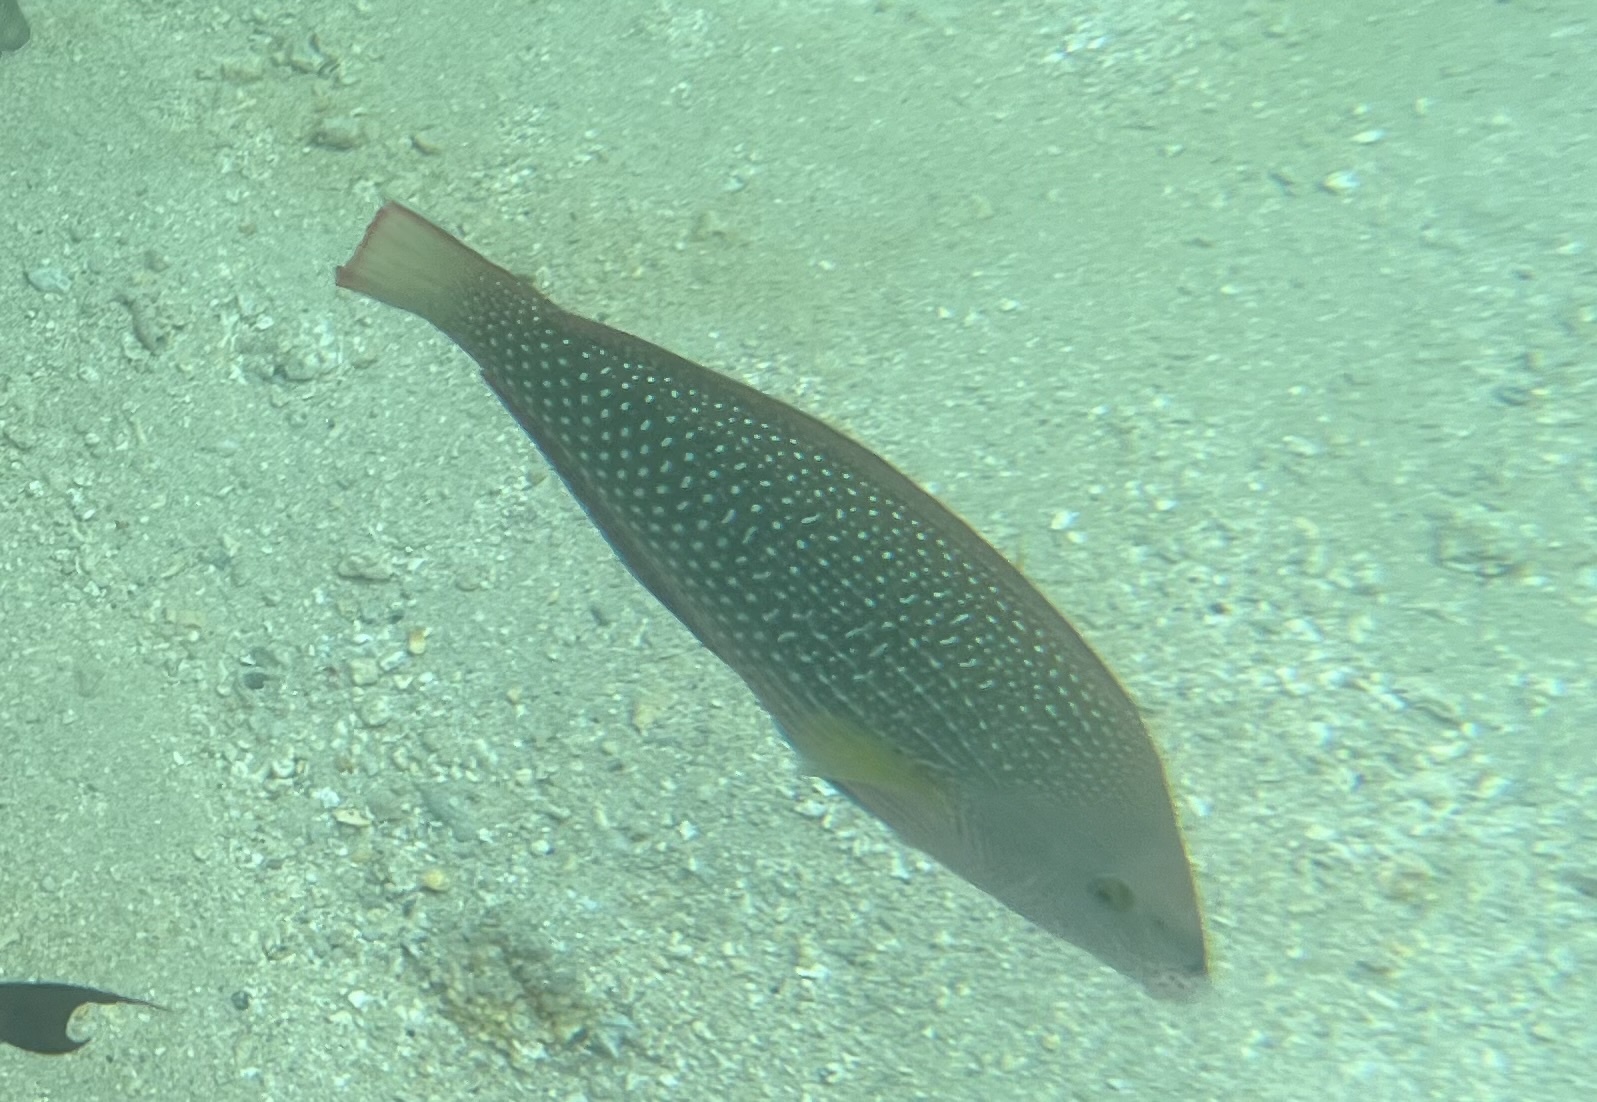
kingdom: Animalia
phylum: Chordata
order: Perciformes
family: Labridae
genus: Anampses
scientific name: Anampses cuvier
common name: Pearl wrasse
